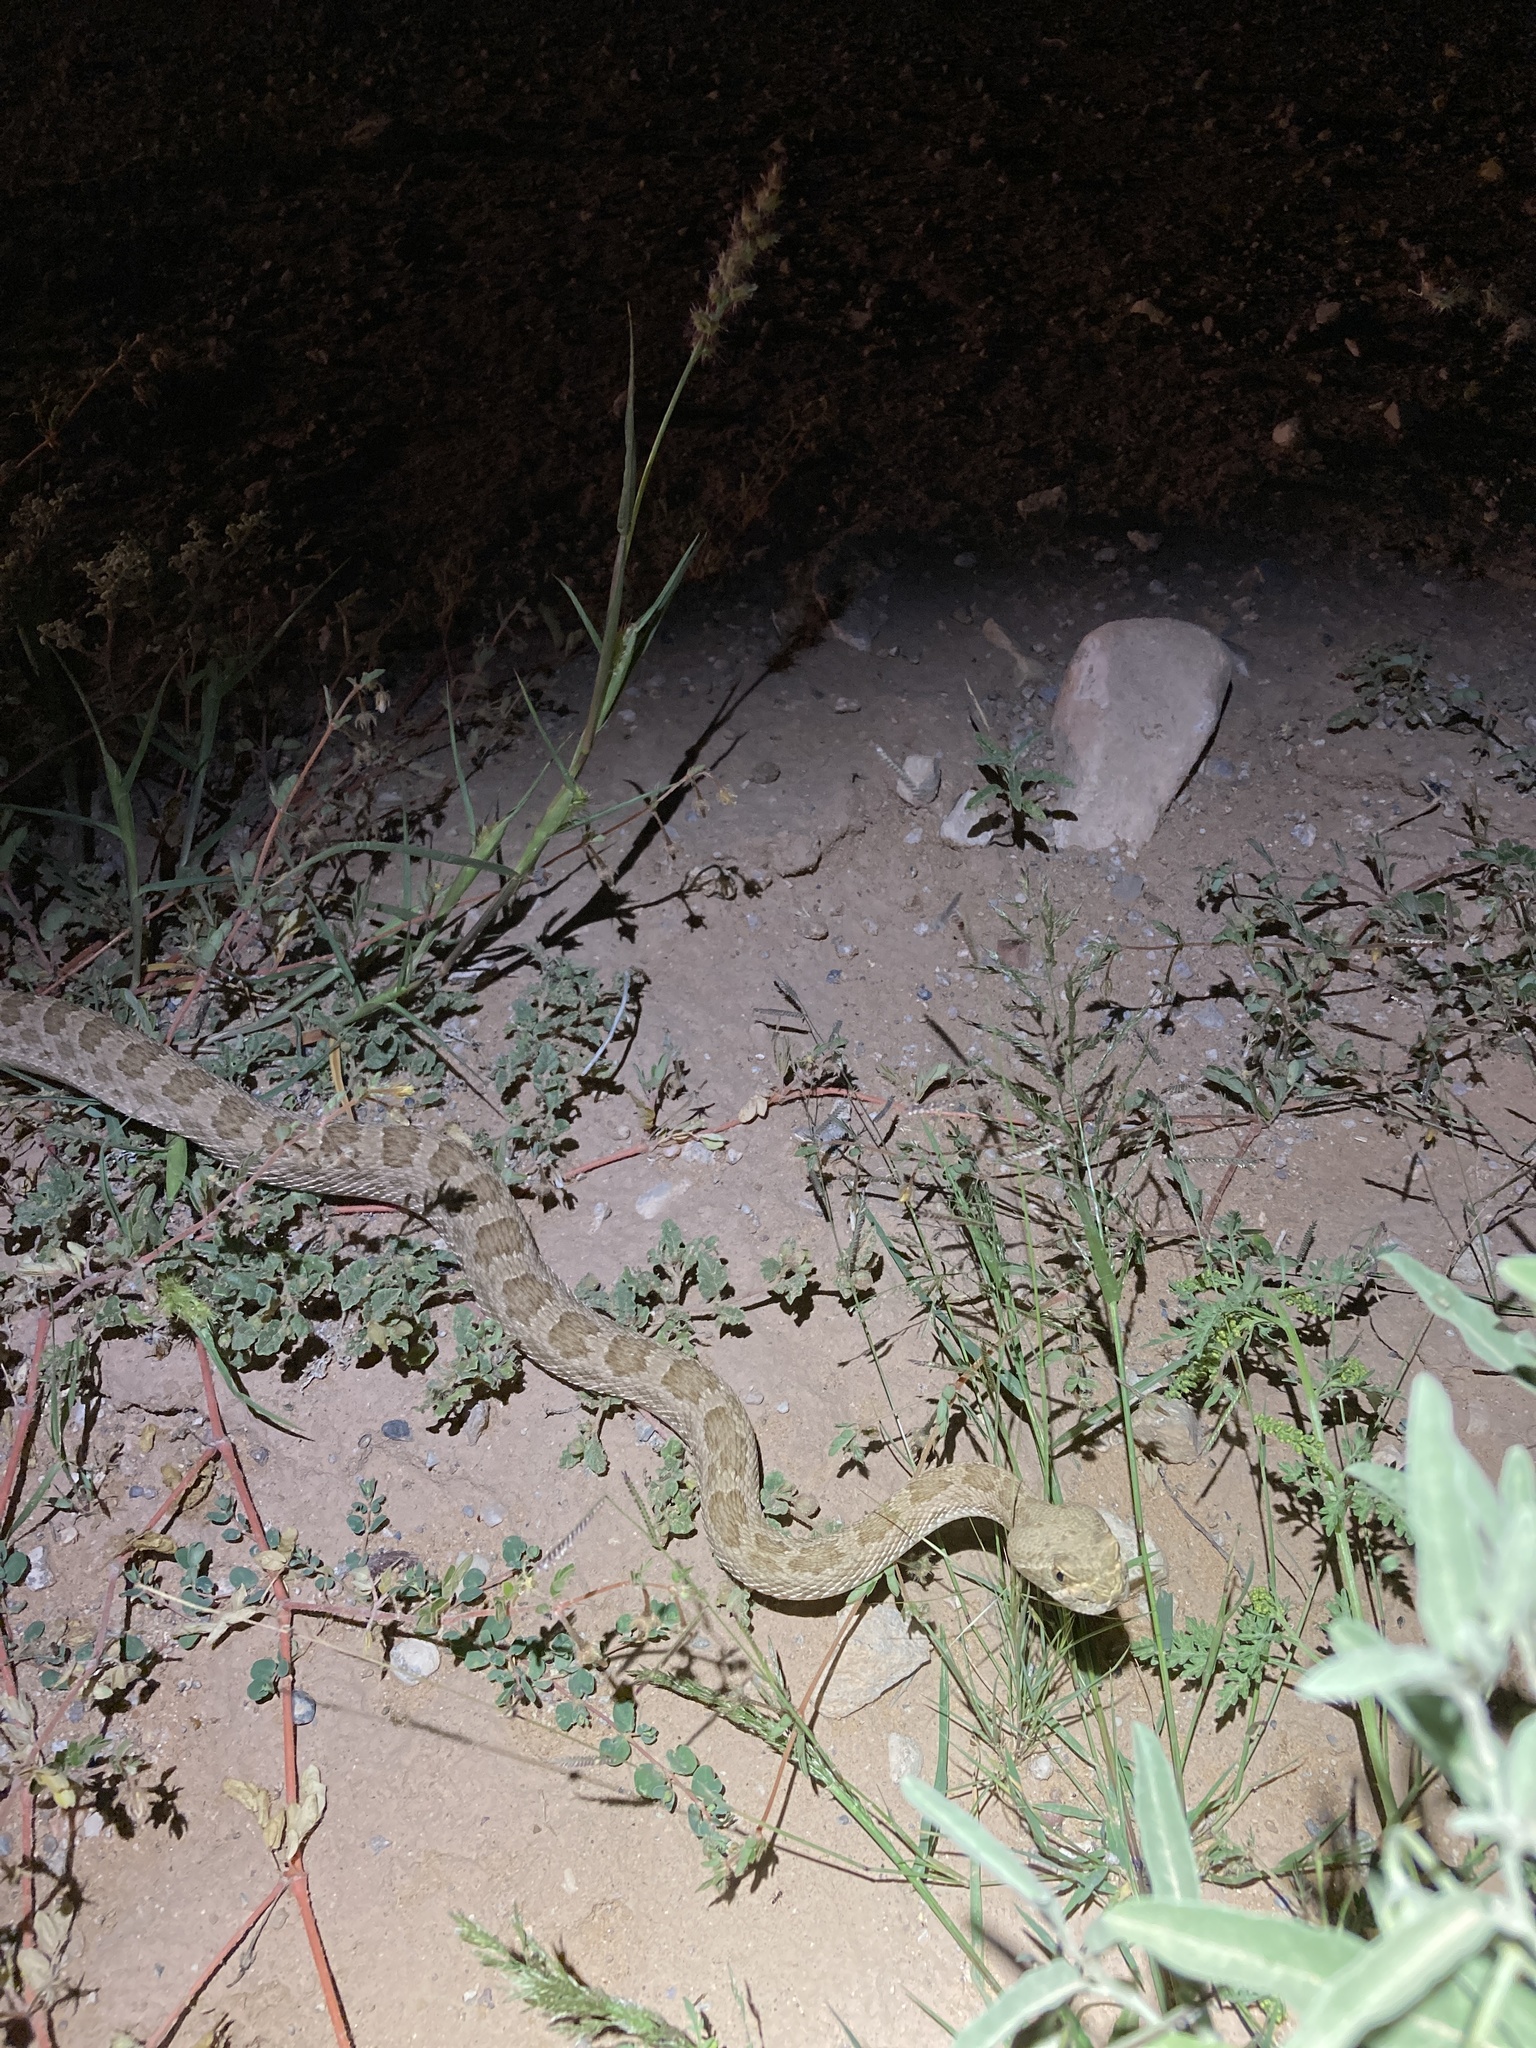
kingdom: Animalia
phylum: Chordata
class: Squamata
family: Viperidae
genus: Crotalus
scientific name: Crotalus viridis
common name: Prairie rattlesnake
